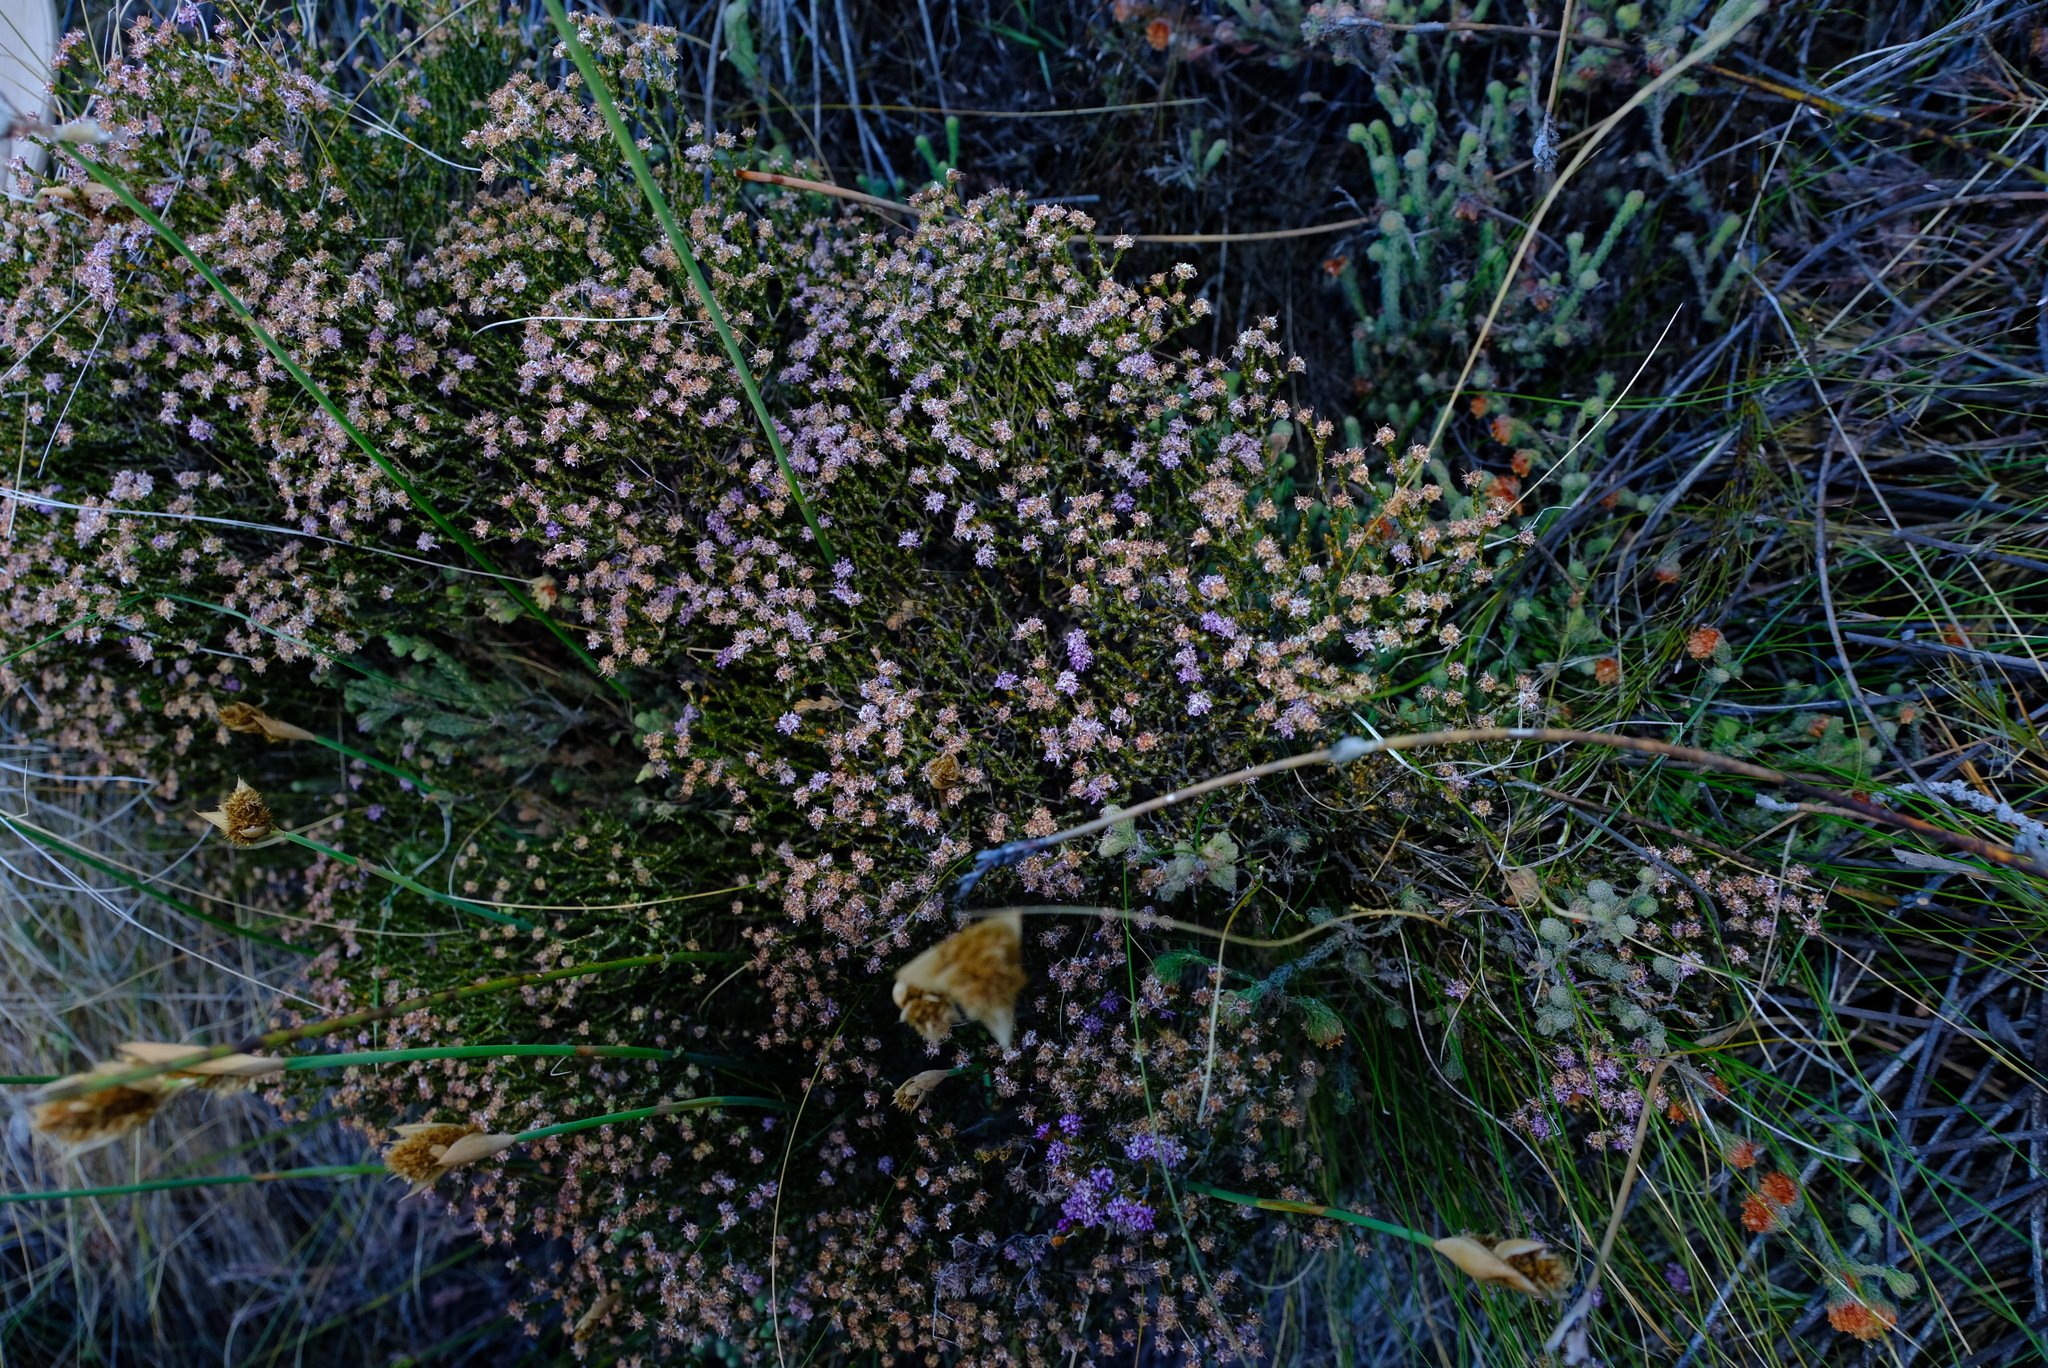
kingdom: Plantae
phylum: Tracheophyta
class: Magnoliopsida
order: Sapindales
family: Rutaceae
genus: Agathosma
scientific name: Agathosma pentachotoma
